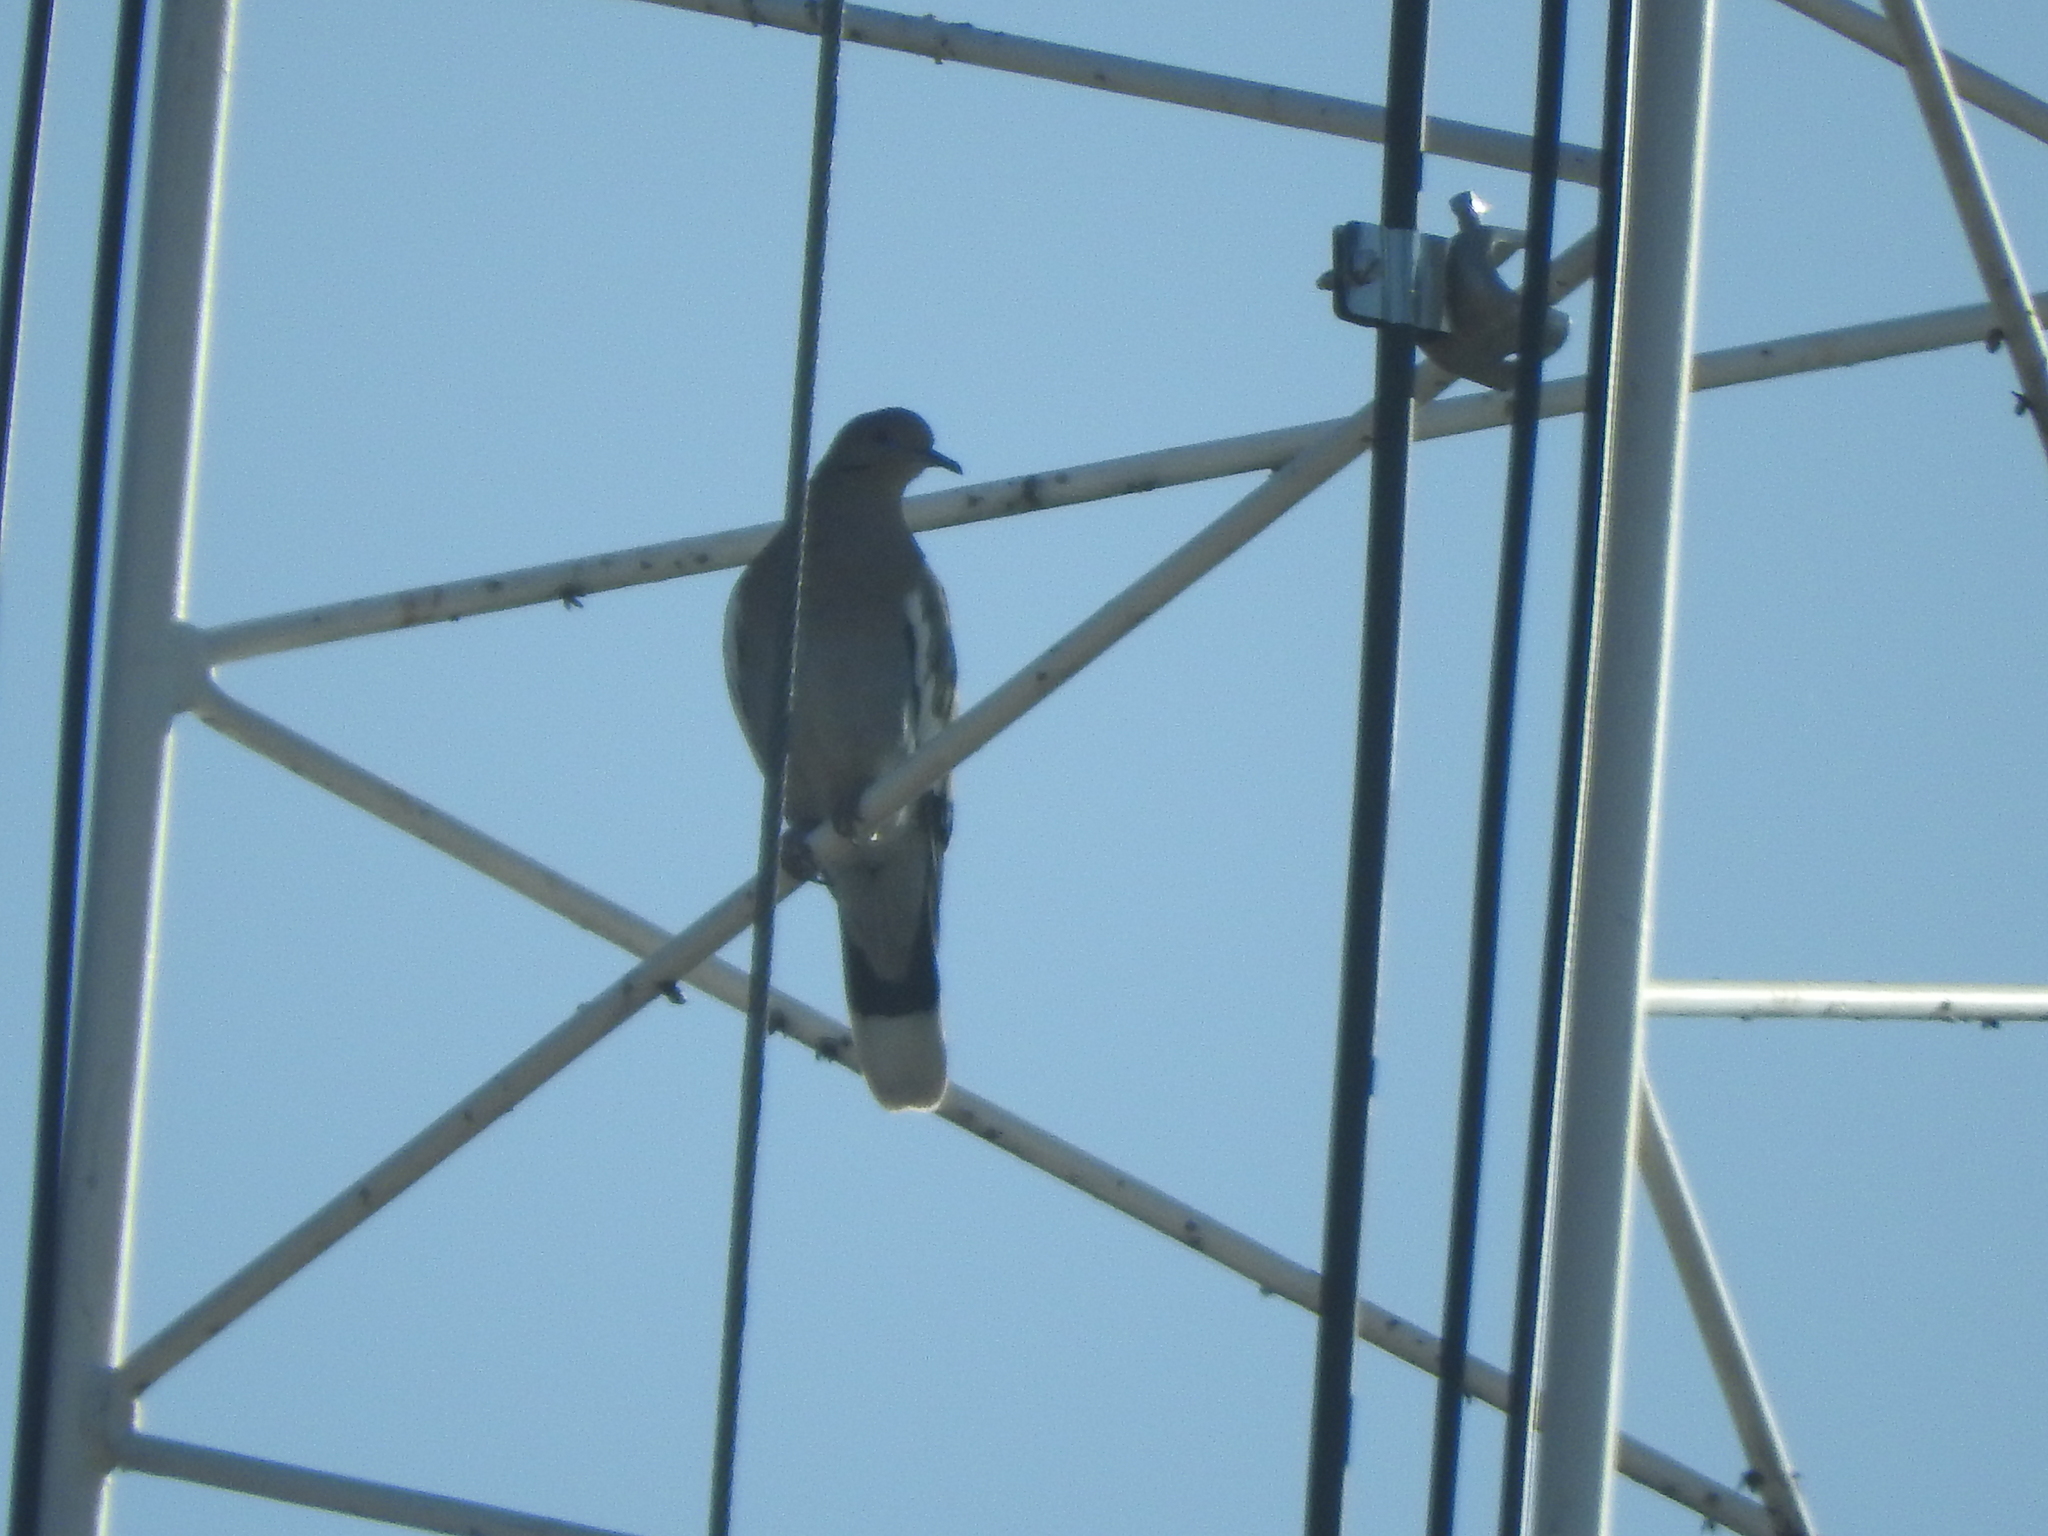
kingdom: Animalia
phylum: Chordata
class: Aves
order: Columbiformes
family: Columbidae
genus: Zenaida
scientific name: Zenaida asiatica
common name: White-winged dove
